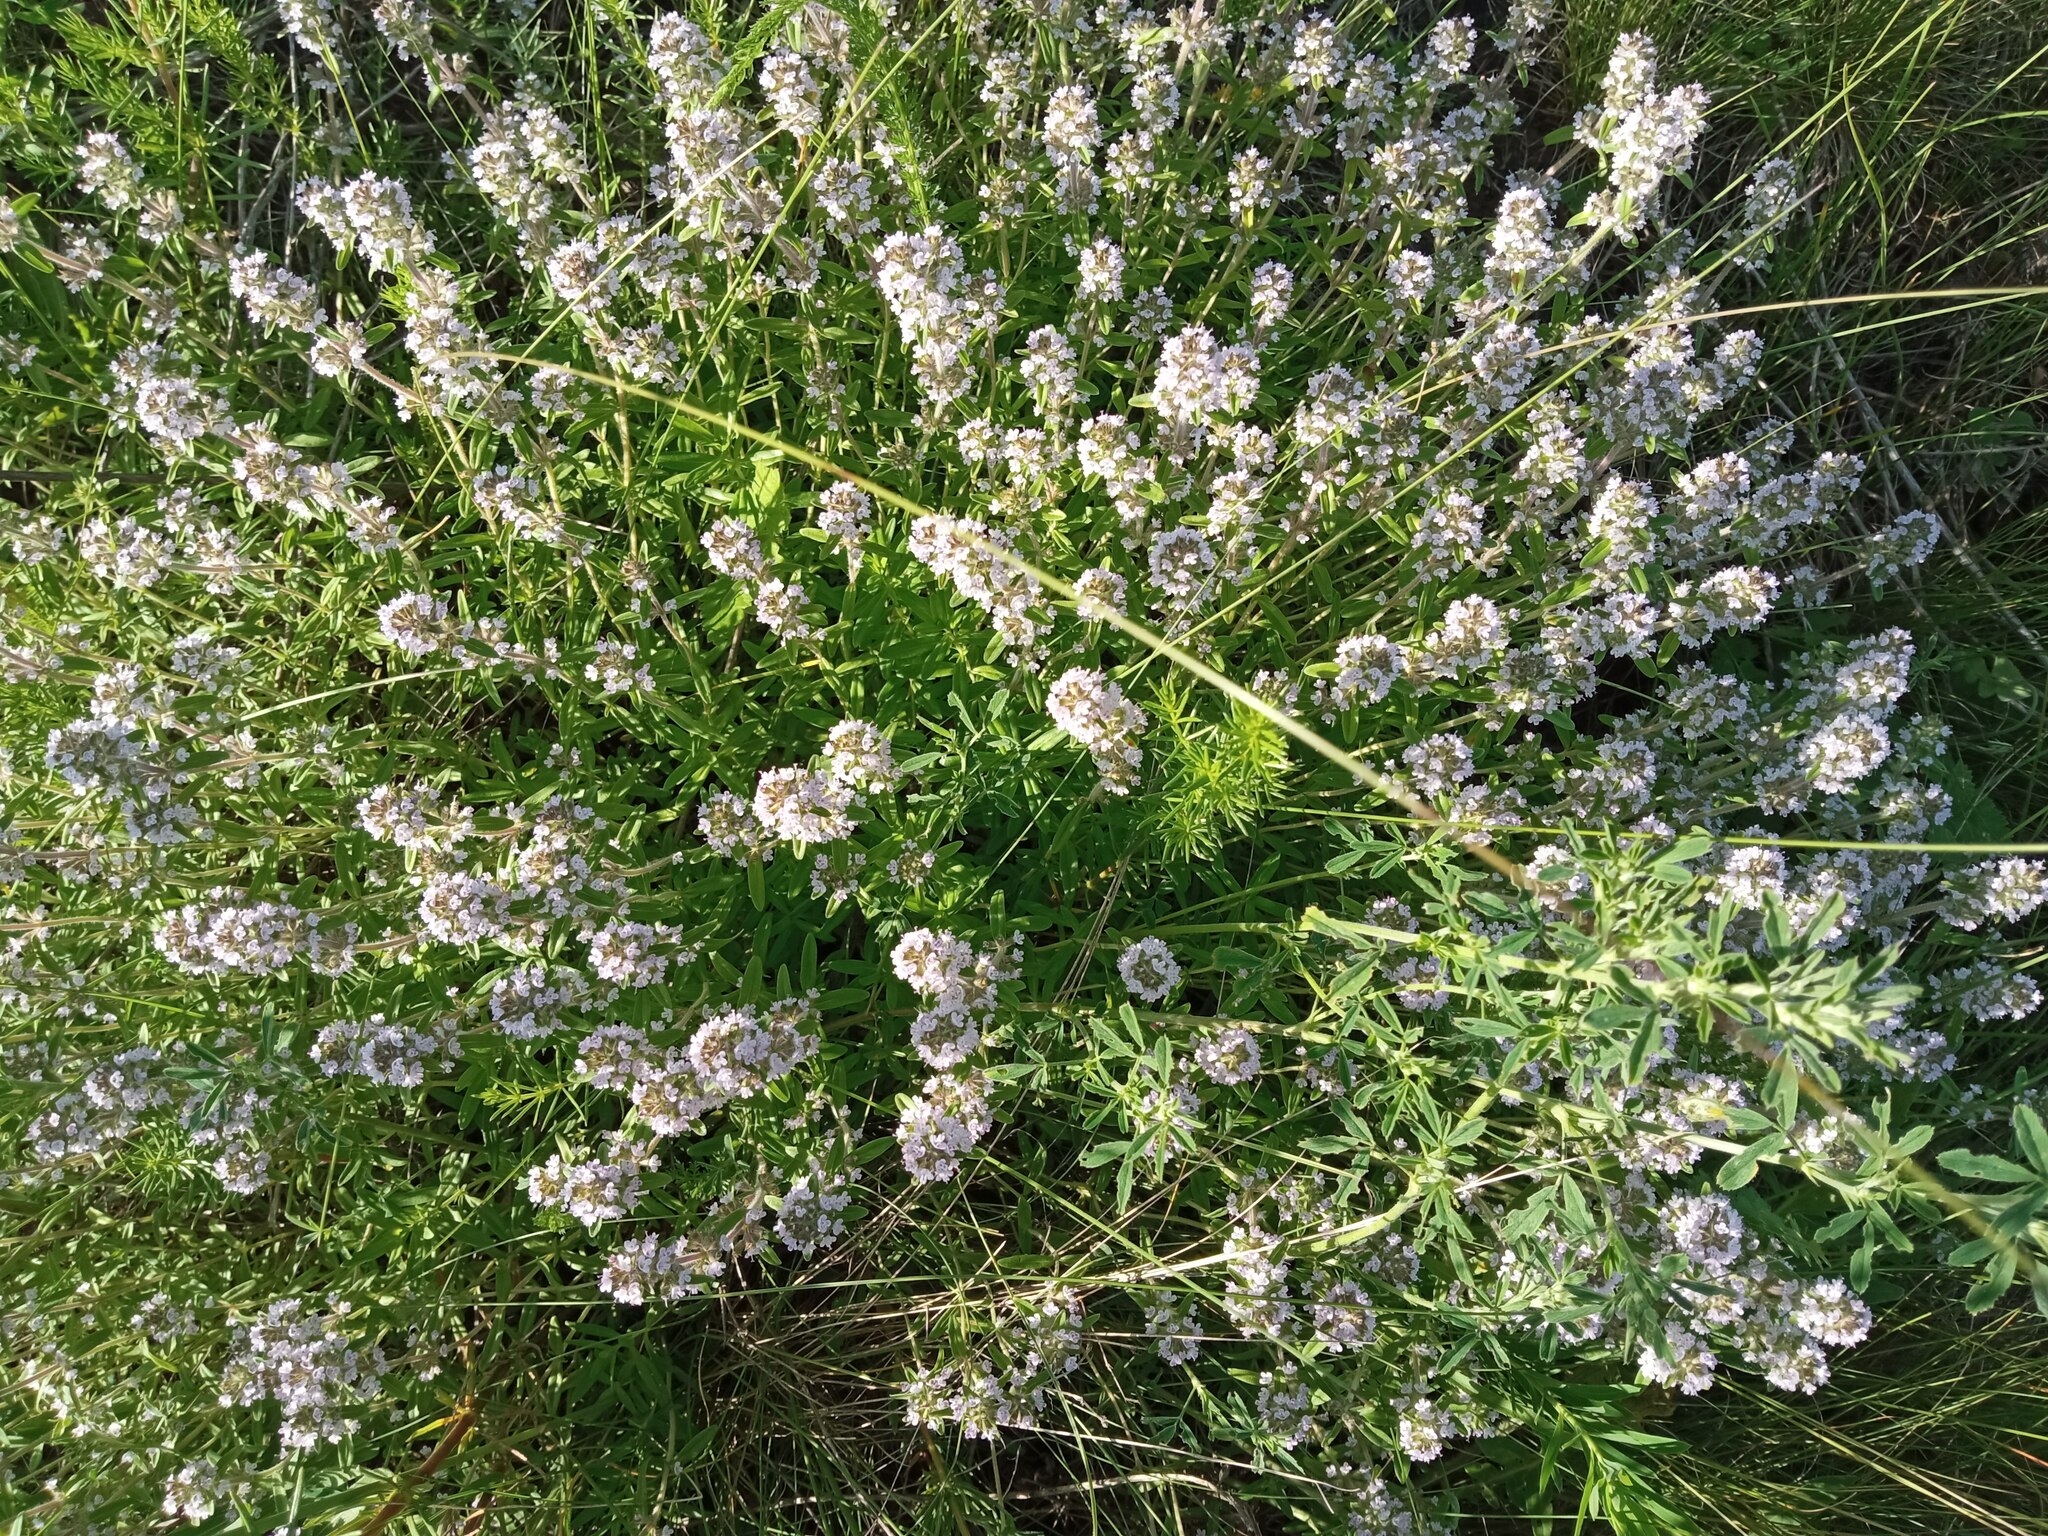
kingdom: Plantae
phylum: Tracheophyta
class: Magnoliopsida
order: Lamiales
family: Lamiaceae
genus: Thymus
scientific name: Thymus pannonicus
